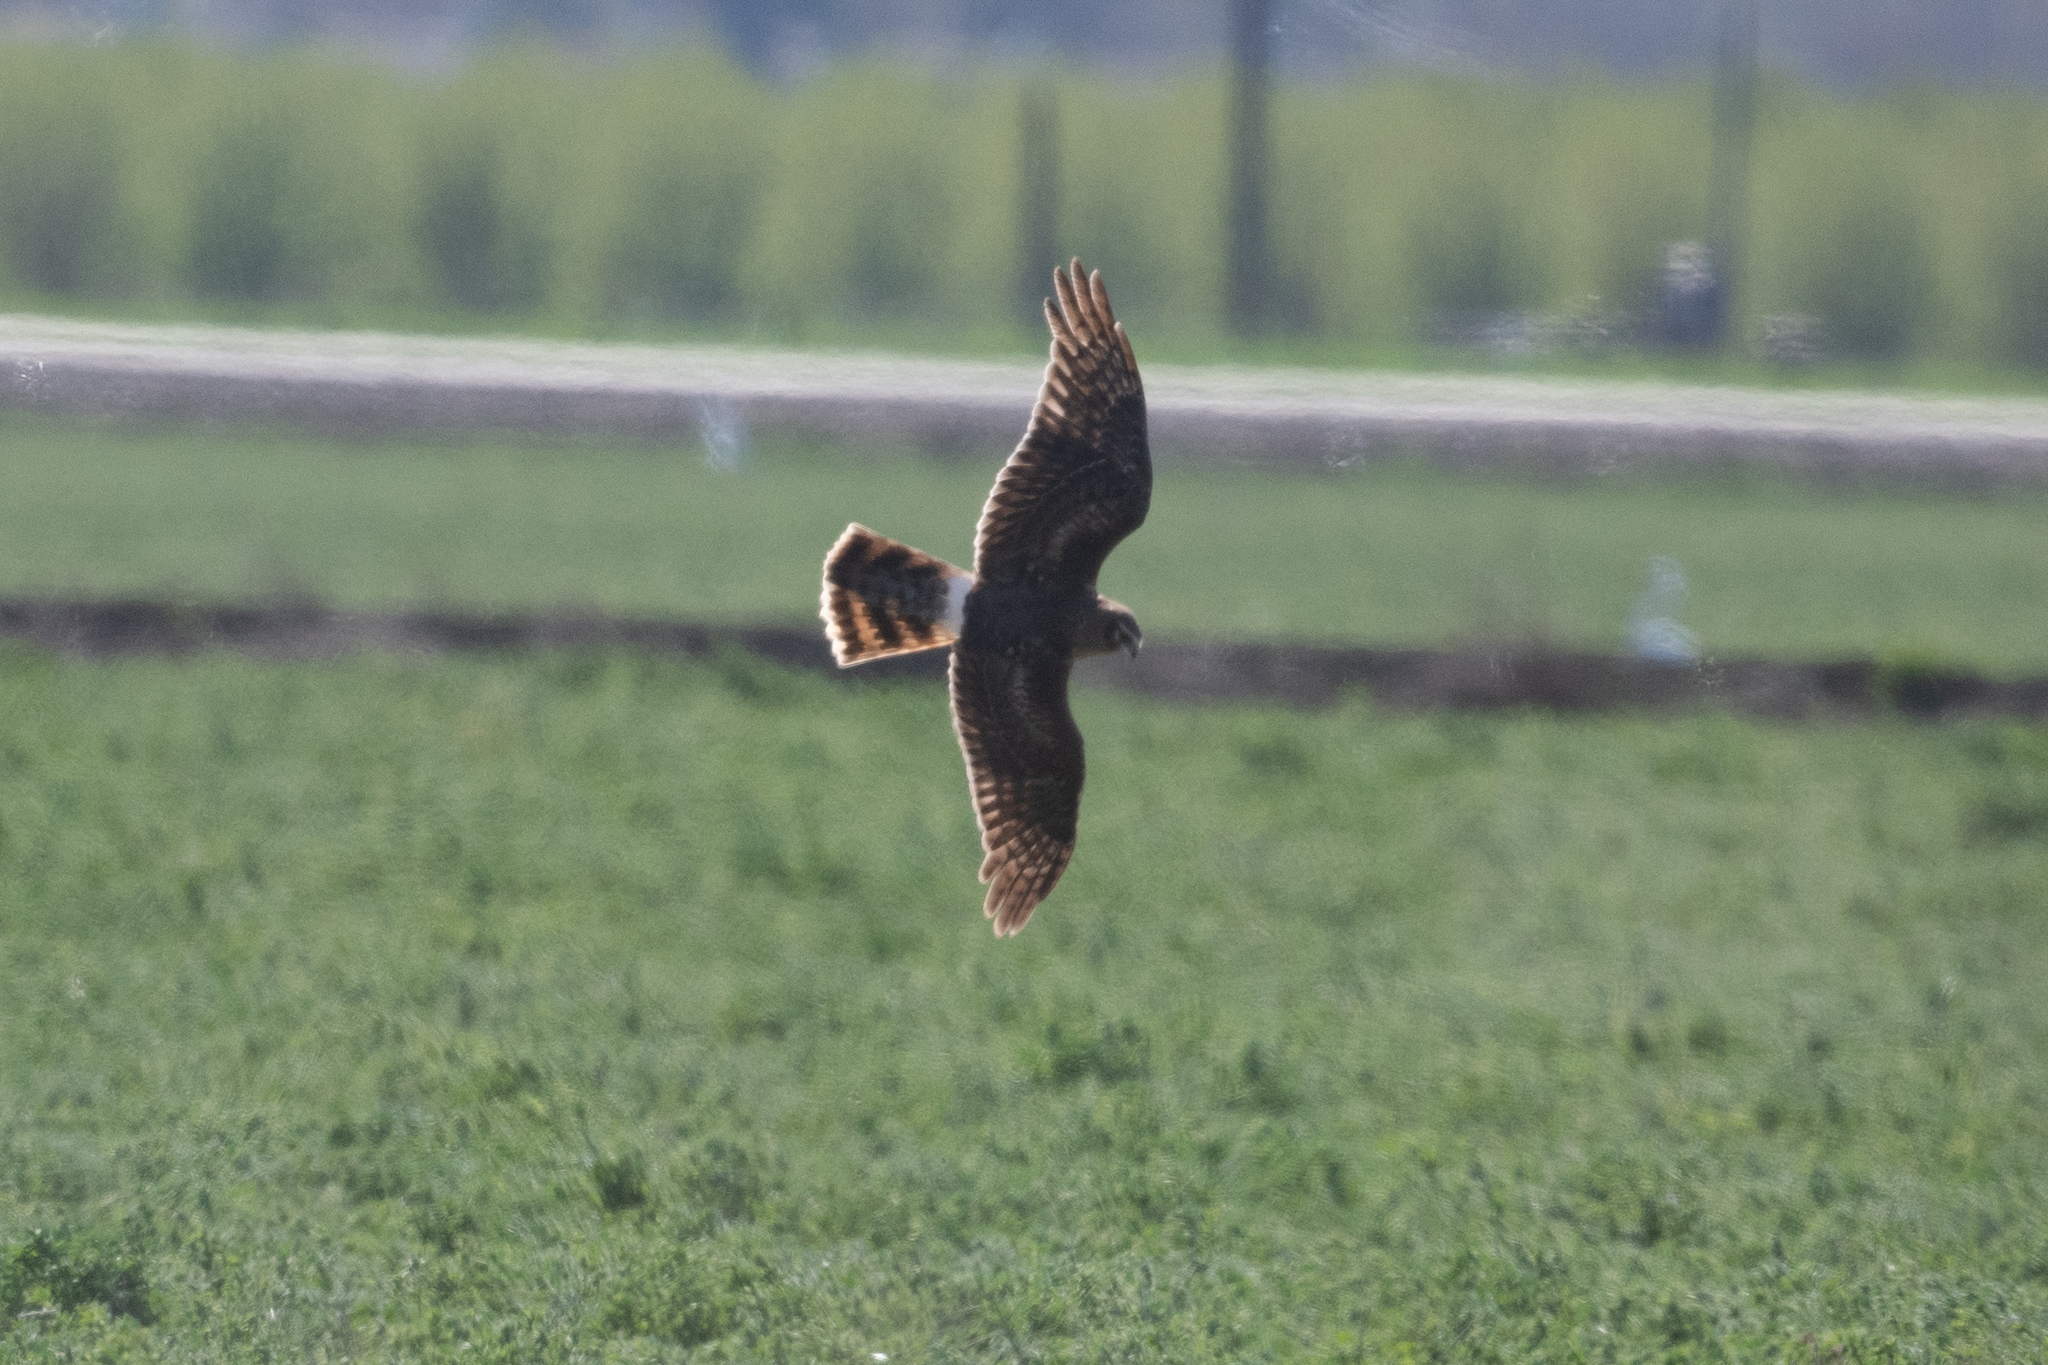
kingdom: Animalia
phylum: Chordata
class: Aves
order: Accipitriformes
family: Accipitridae
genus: Circus
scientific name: Circus cyaneus
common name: Hen harrier
